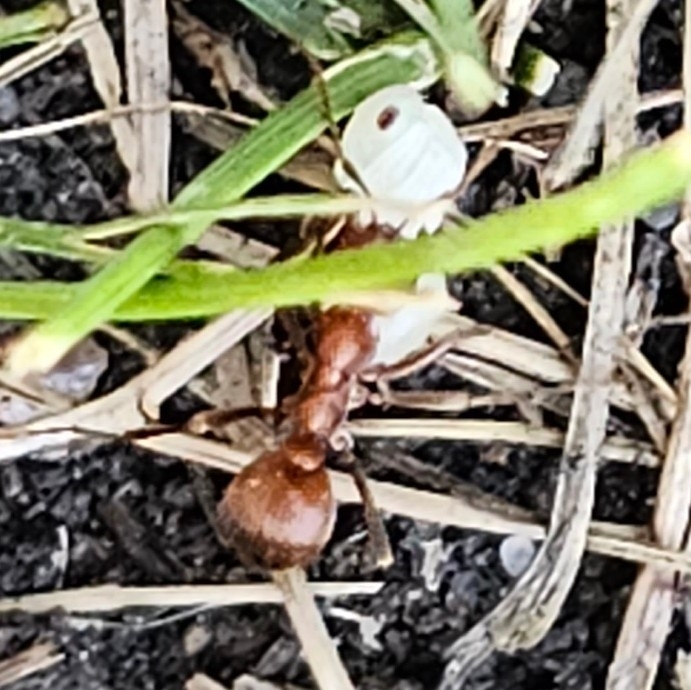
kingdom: Animalia
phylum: Arthropoda
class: Insecta
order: Hymenoptera
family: Formicidae
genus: Polyergus
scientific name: Polyergus mexicanus
